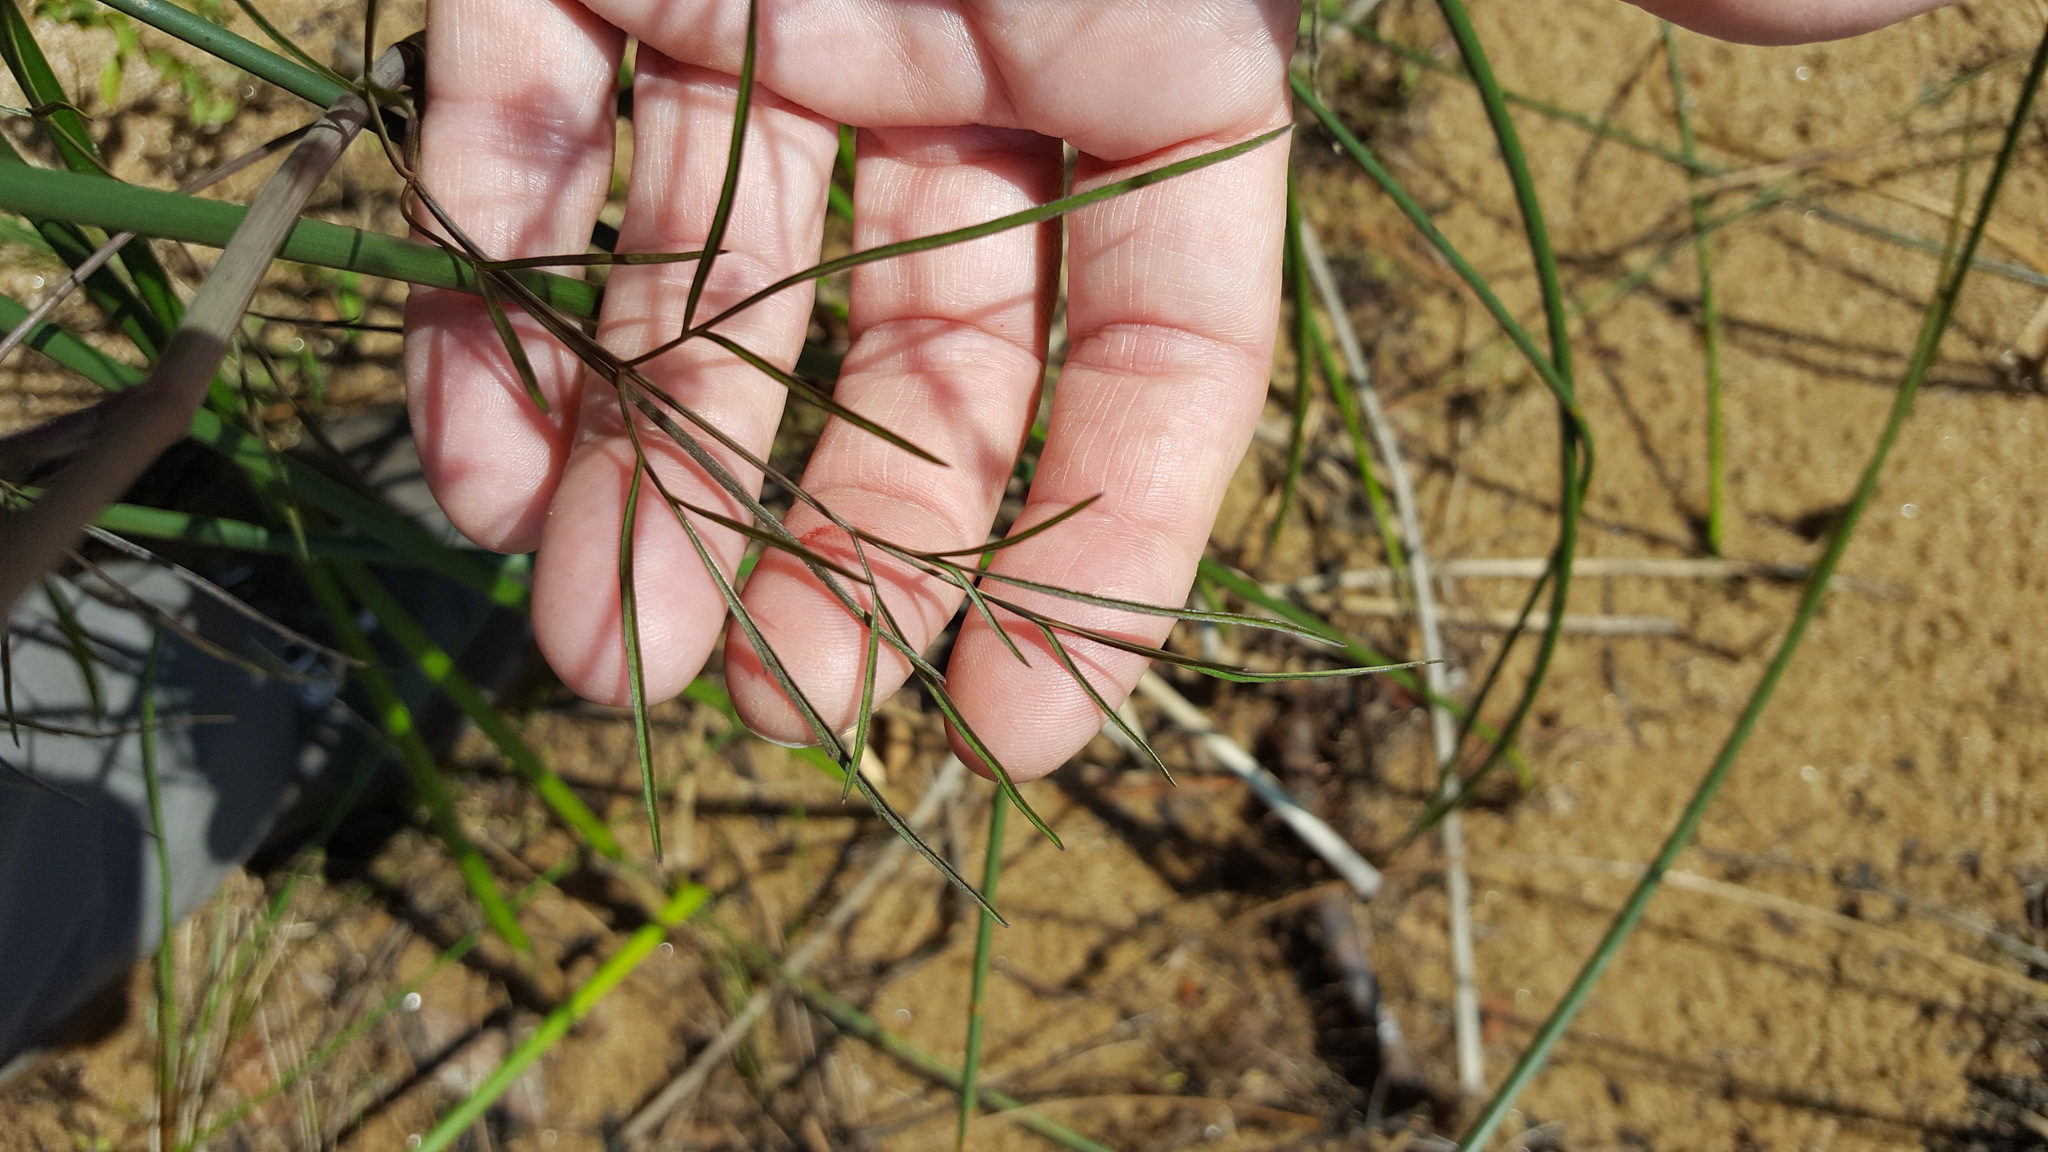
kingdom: Plantae
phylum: Tracheophyta
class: Magnoliopsida
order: Apiales
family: Apiaceae
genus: Cicuta
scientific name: Cicuta bulbifera
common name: Bulb-bearing water-hemlock
